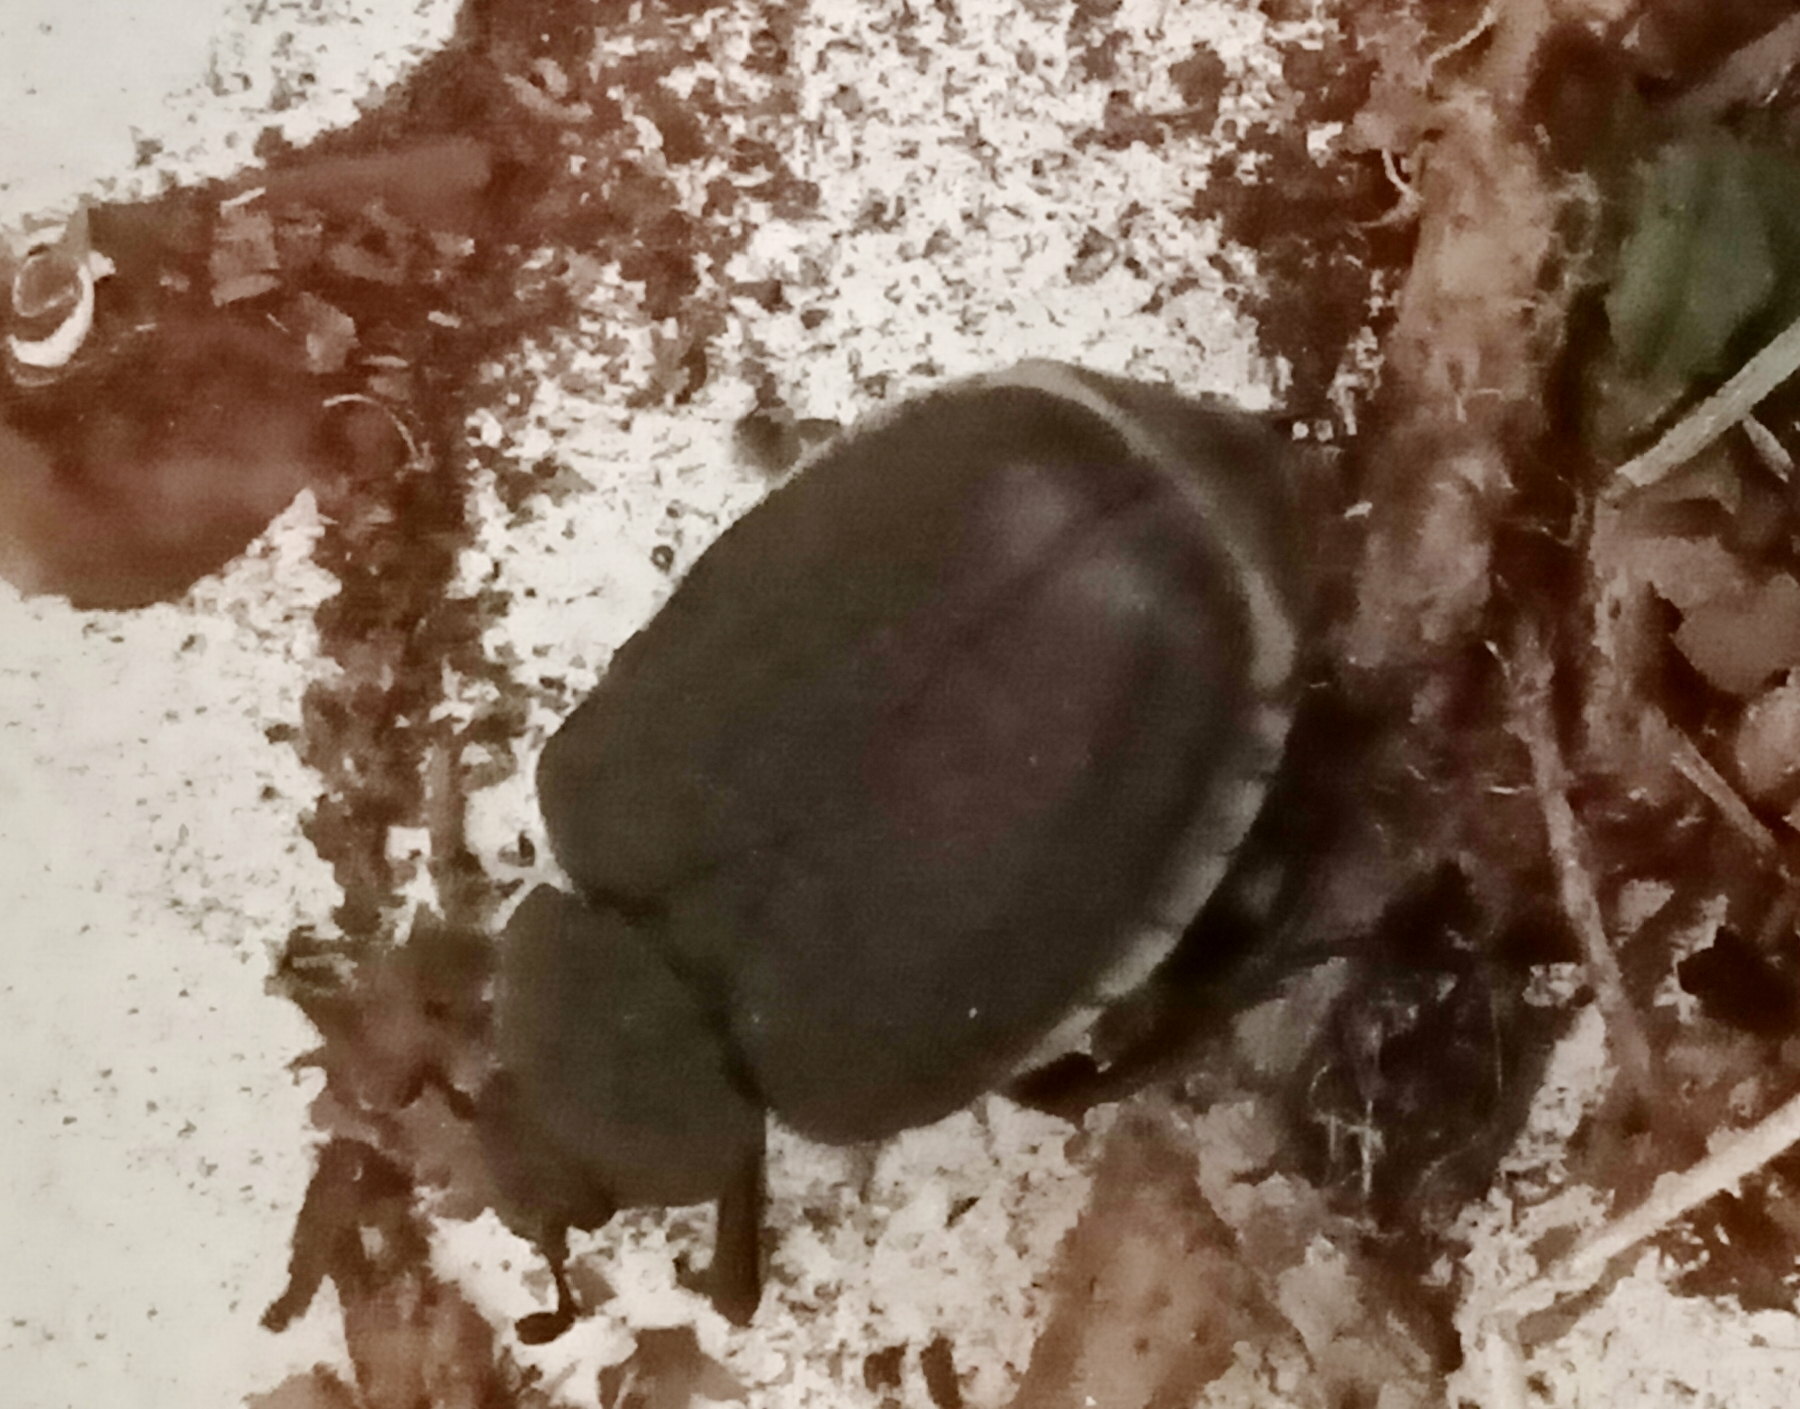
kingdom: Animalia
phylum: Arthropoda
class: Insecta
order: Coleoptera
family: Scarabaeidae
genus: Osmoderma
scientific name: Osmoderma barnabita
